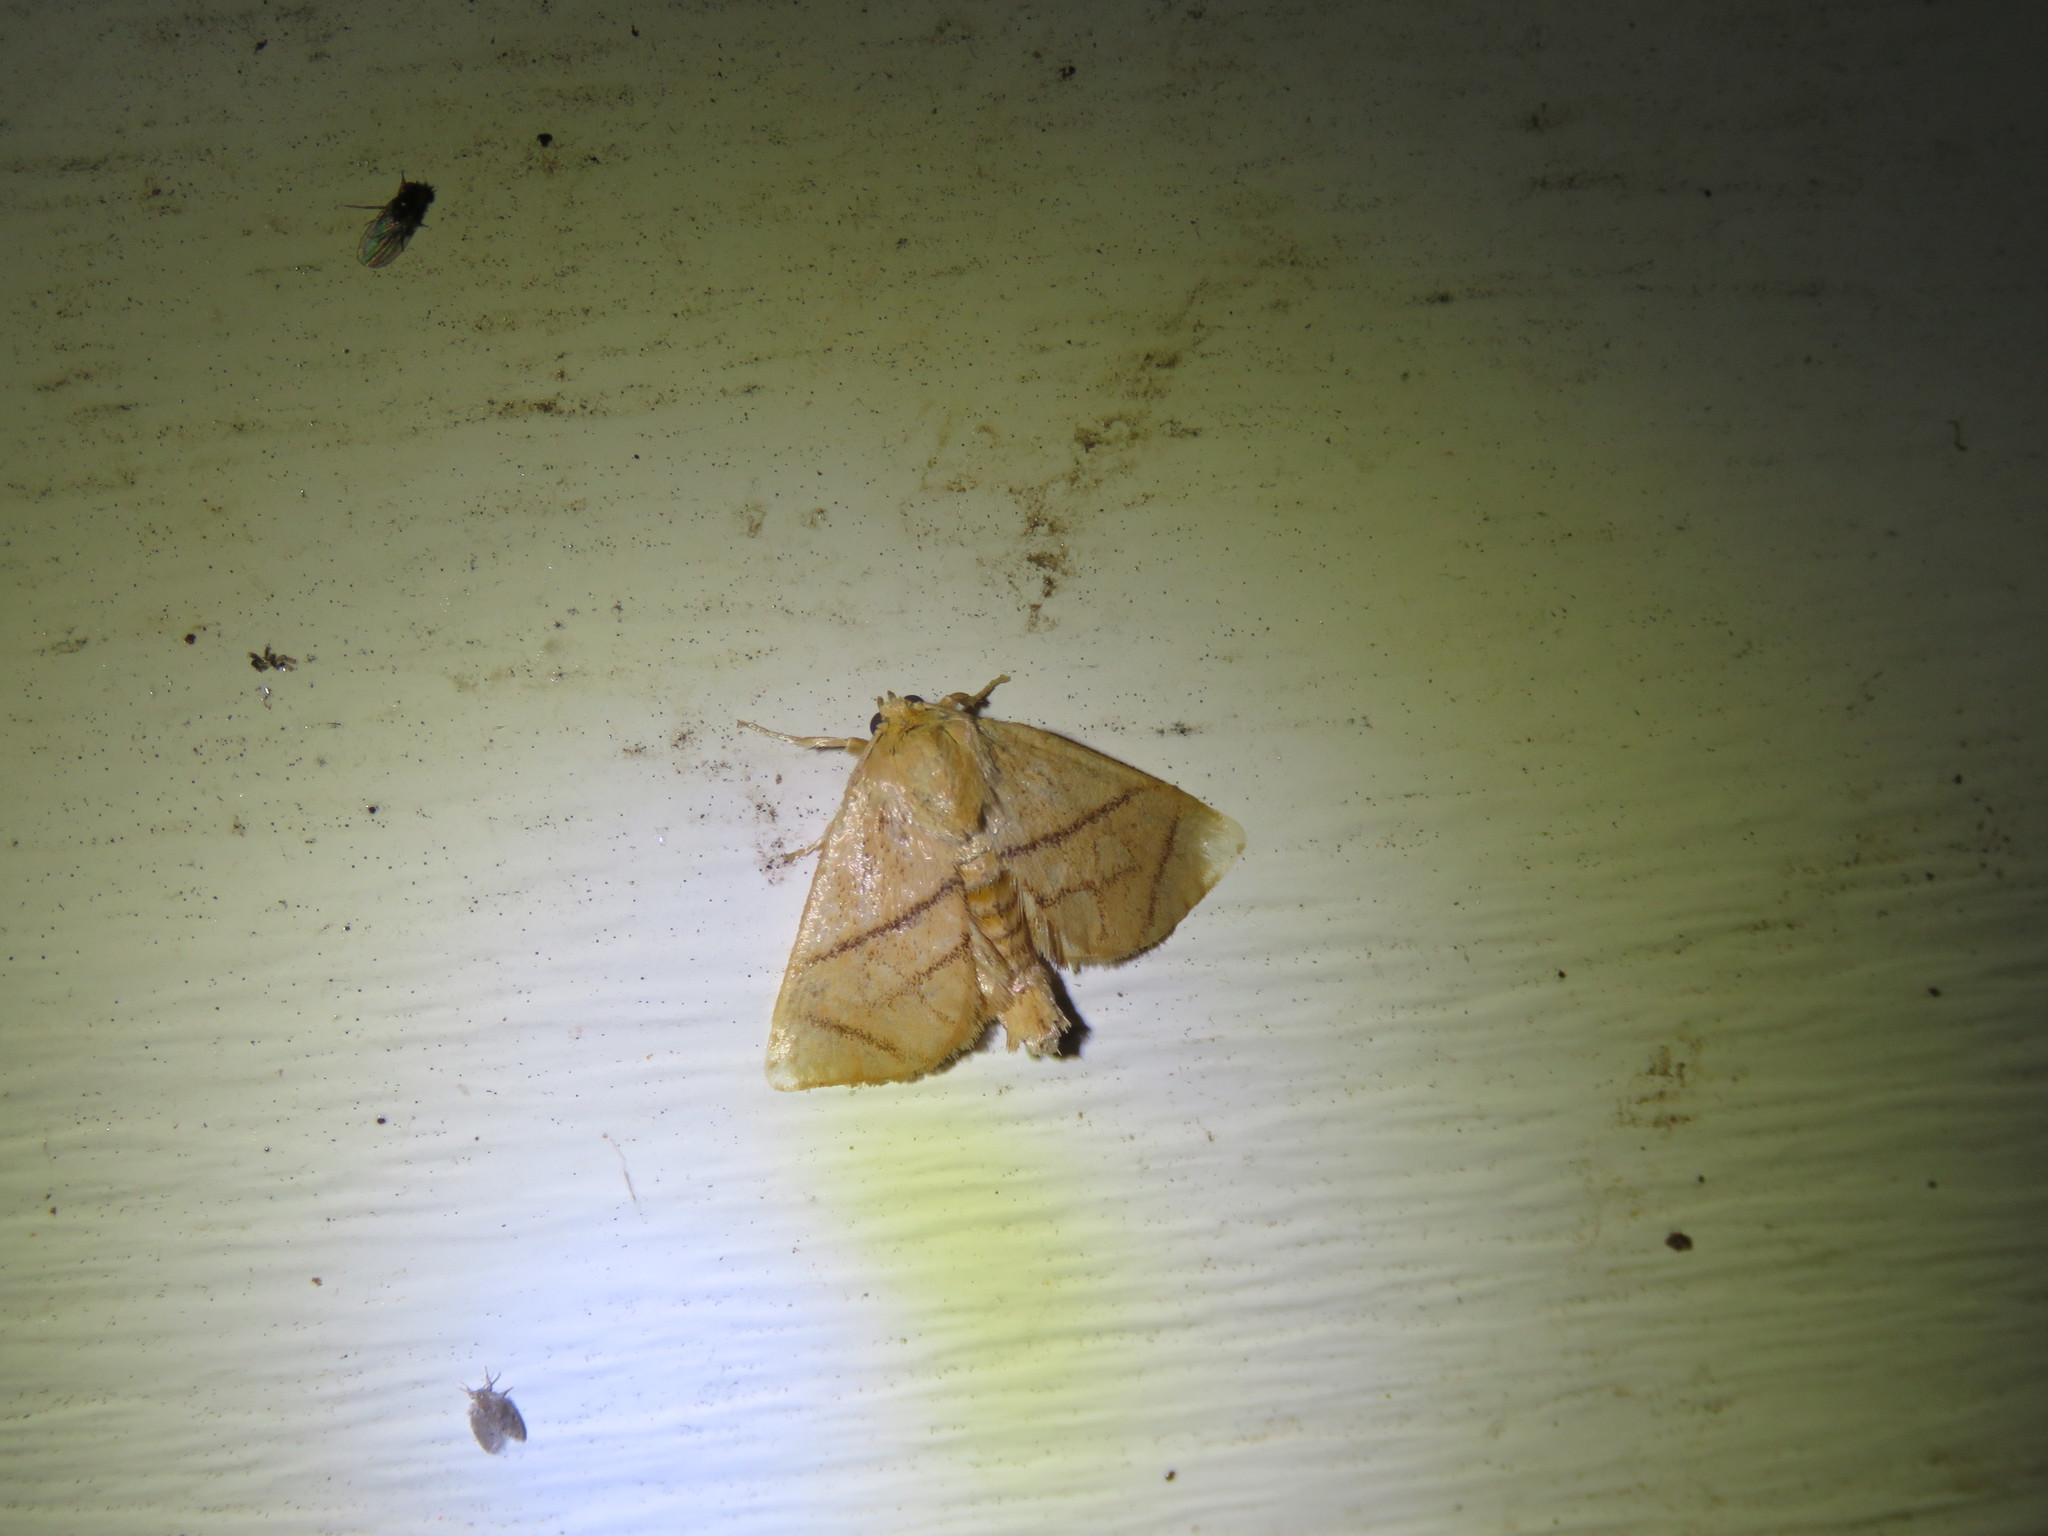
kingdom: Animalia
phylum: Arthropoda
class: Insecta
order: Lepidoptera
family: Limacodidae
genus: Apoda
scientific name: Apoda y-inversa
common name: Yellow-collared slug moth
